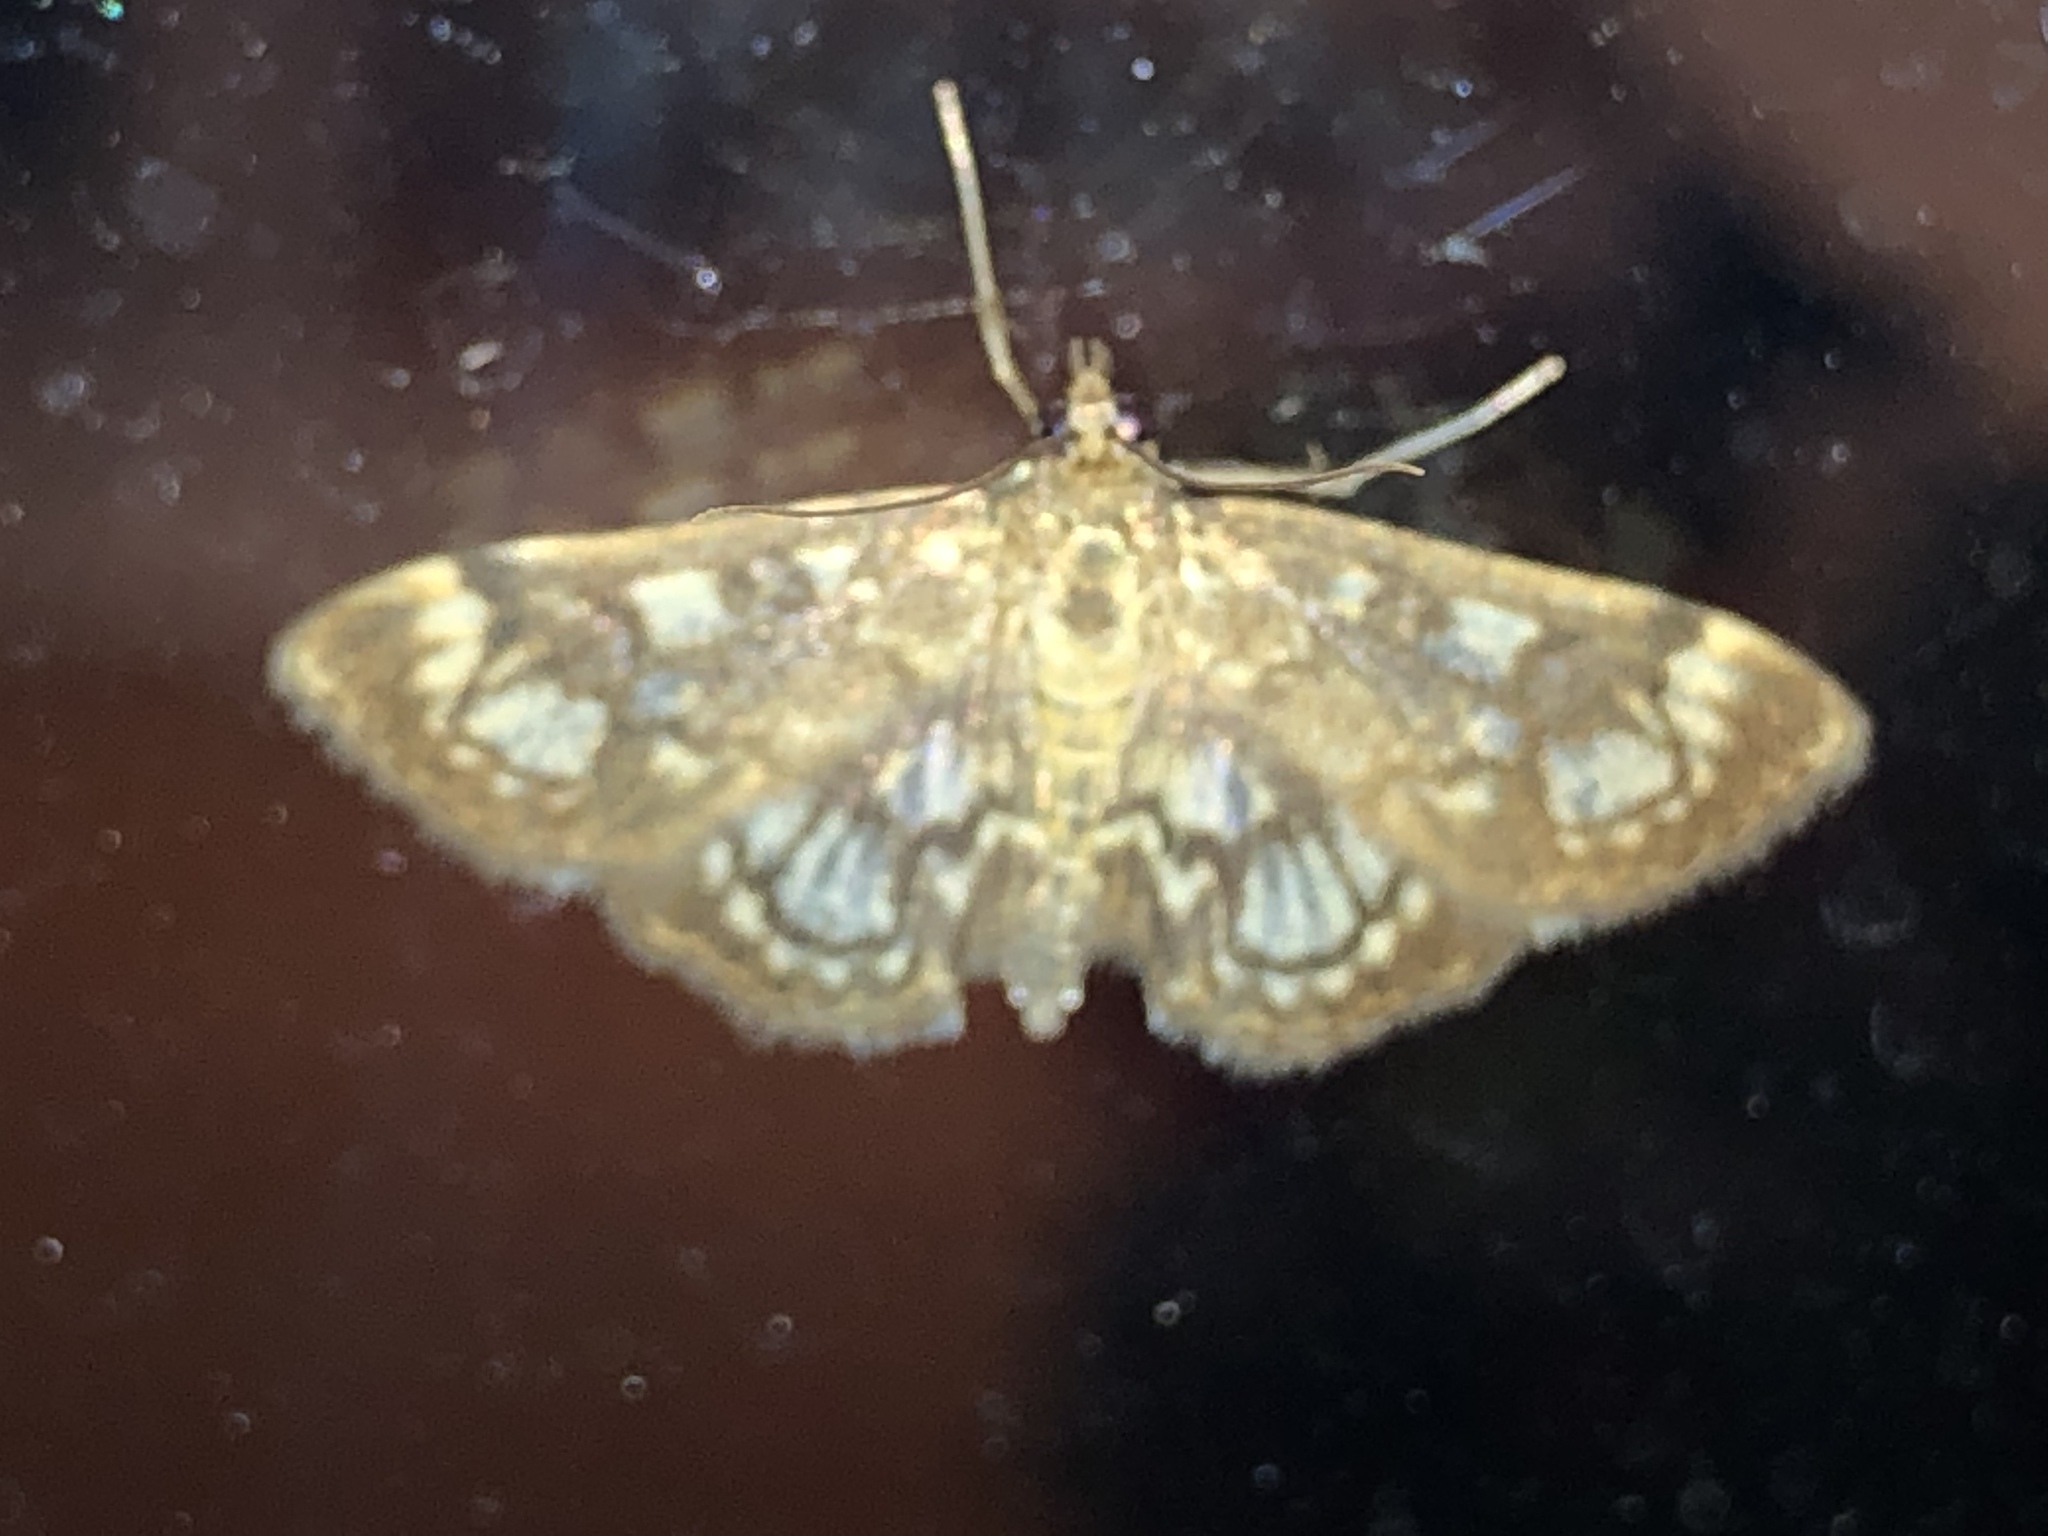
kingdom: Animalia
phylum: Arthropoda
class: Insecta
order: Lepidoptera
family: Crambidae
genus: Anania
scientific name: Anania coronata
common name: Elder pearl
